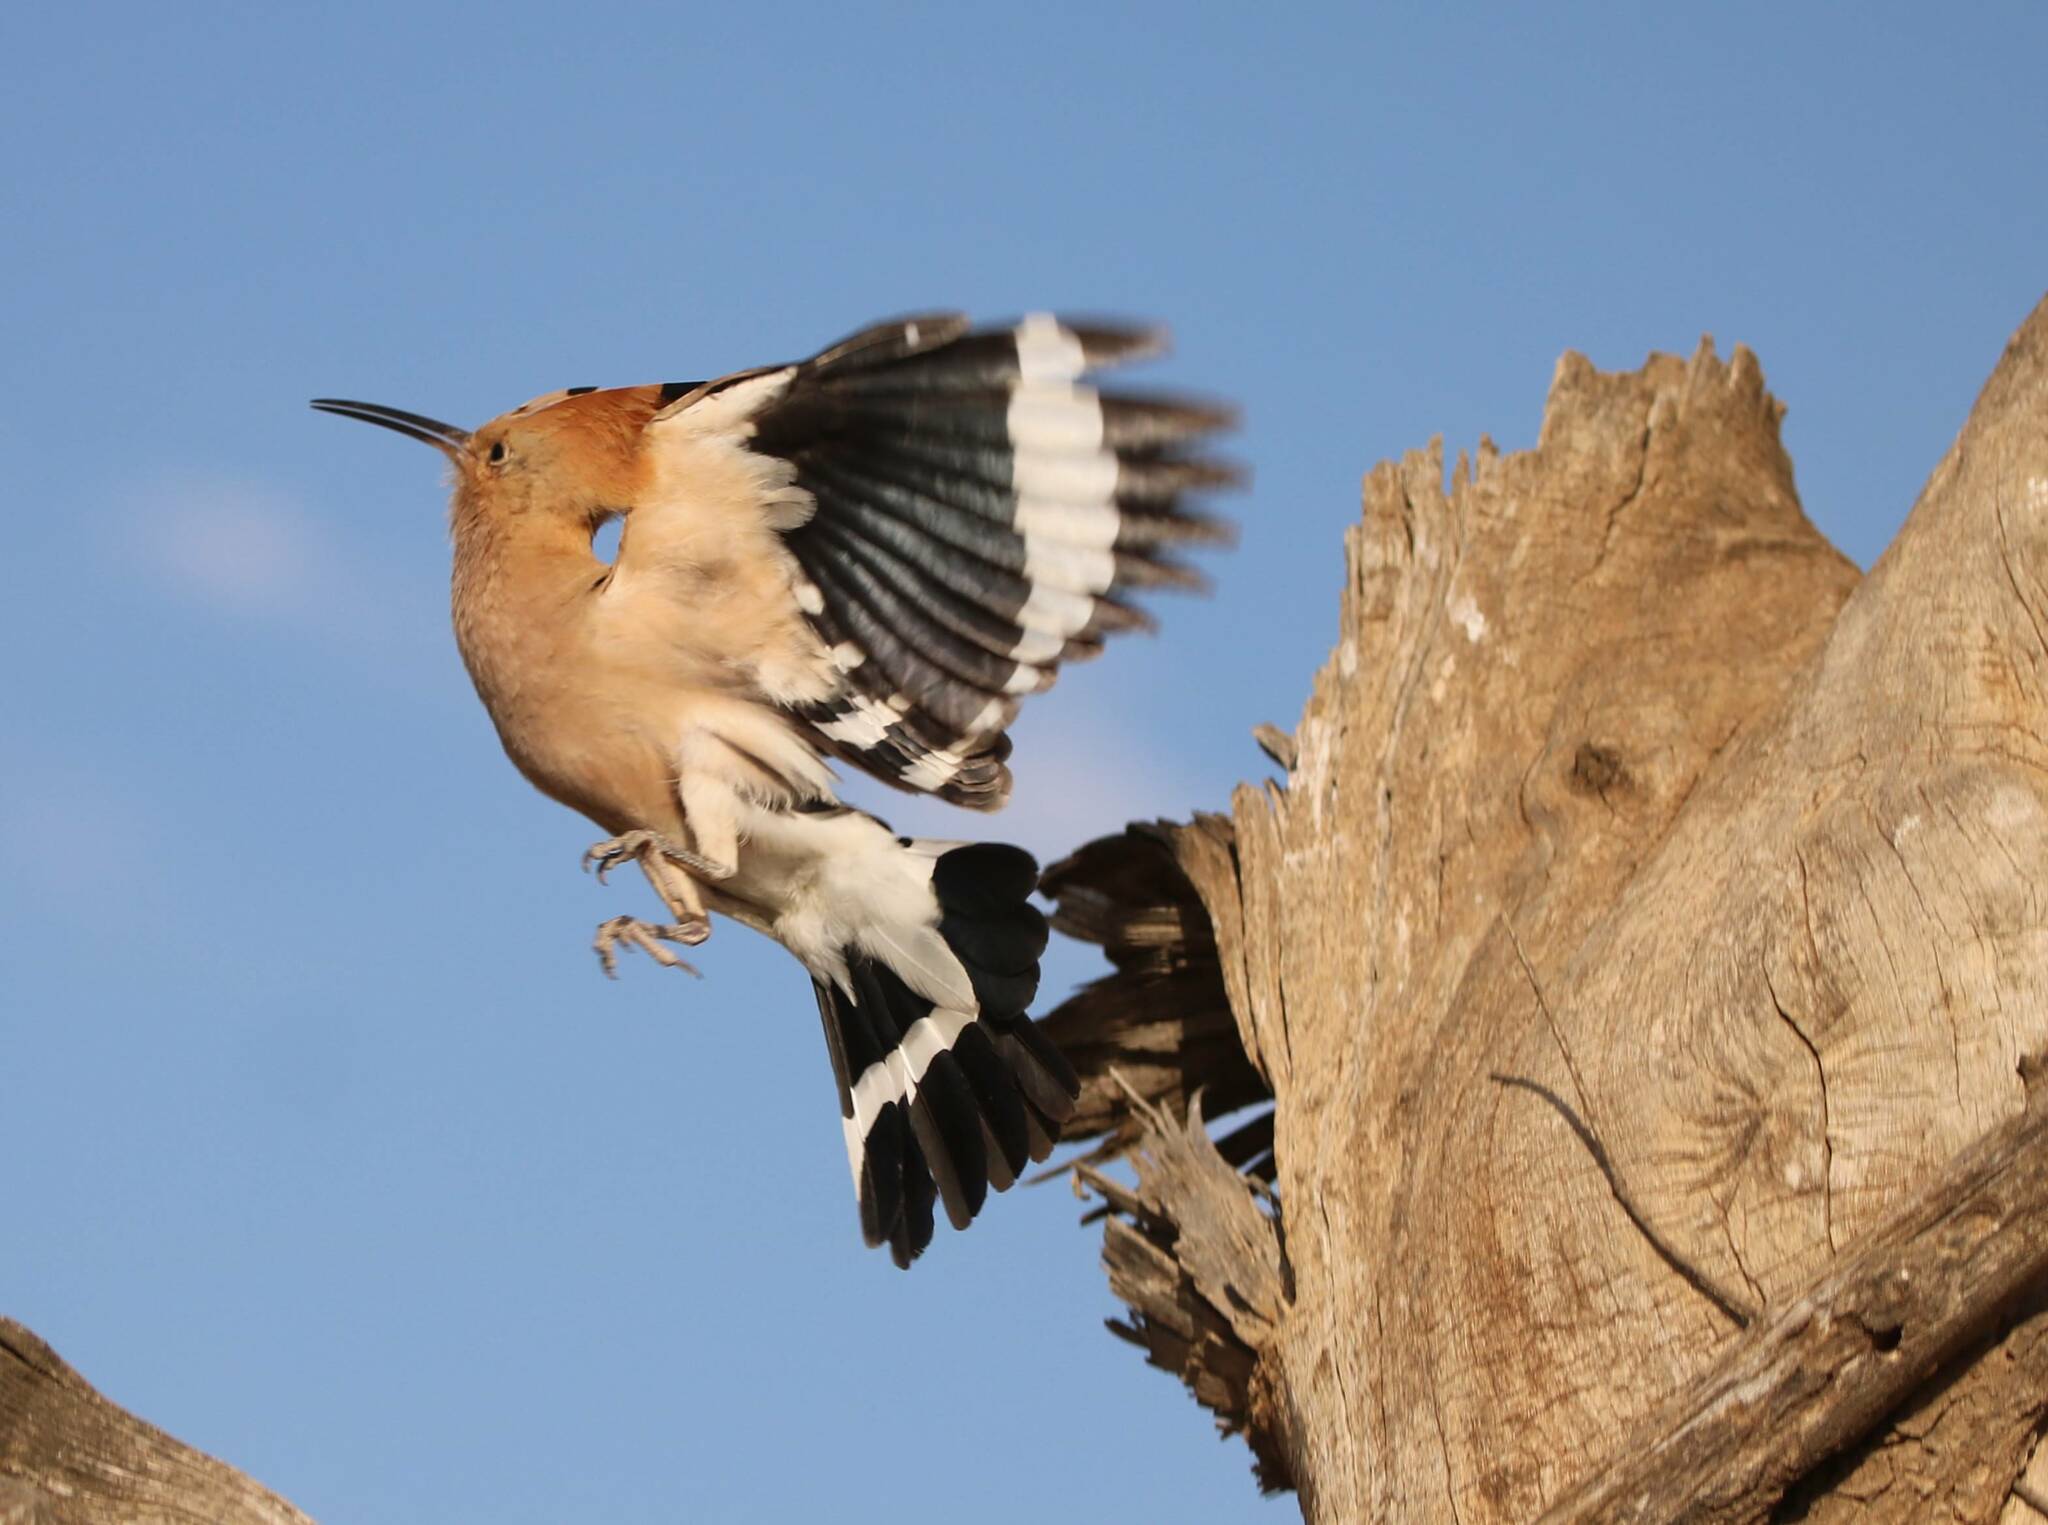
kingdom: Animalia
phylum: Chordata
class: Aves
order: Bucerotiformes
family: Upupidae
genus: Upupa
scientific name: Upupa epops
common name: Eurasian hoopoe
